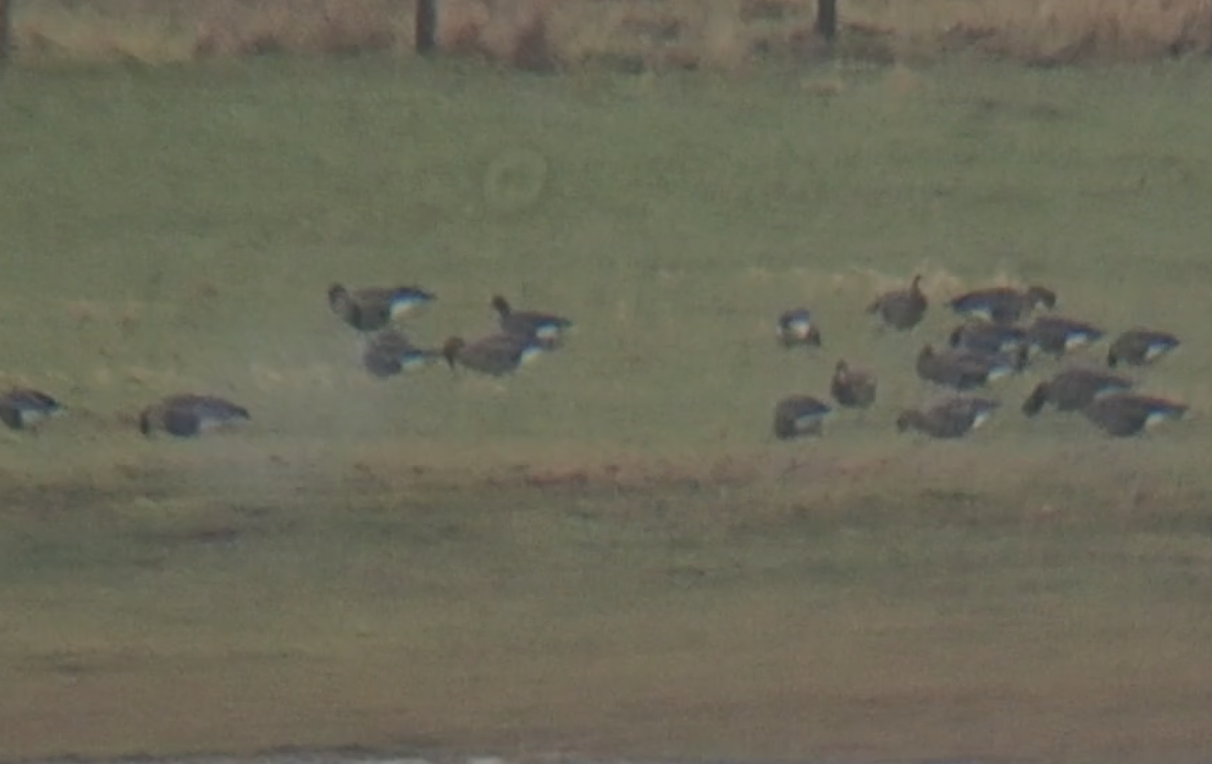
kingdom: Animalia
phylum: Chordata
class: Aves
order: Anseriformes
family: Anatidae
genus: Anser
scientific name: Anser erythropus
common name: Lesser white-fronted goose
